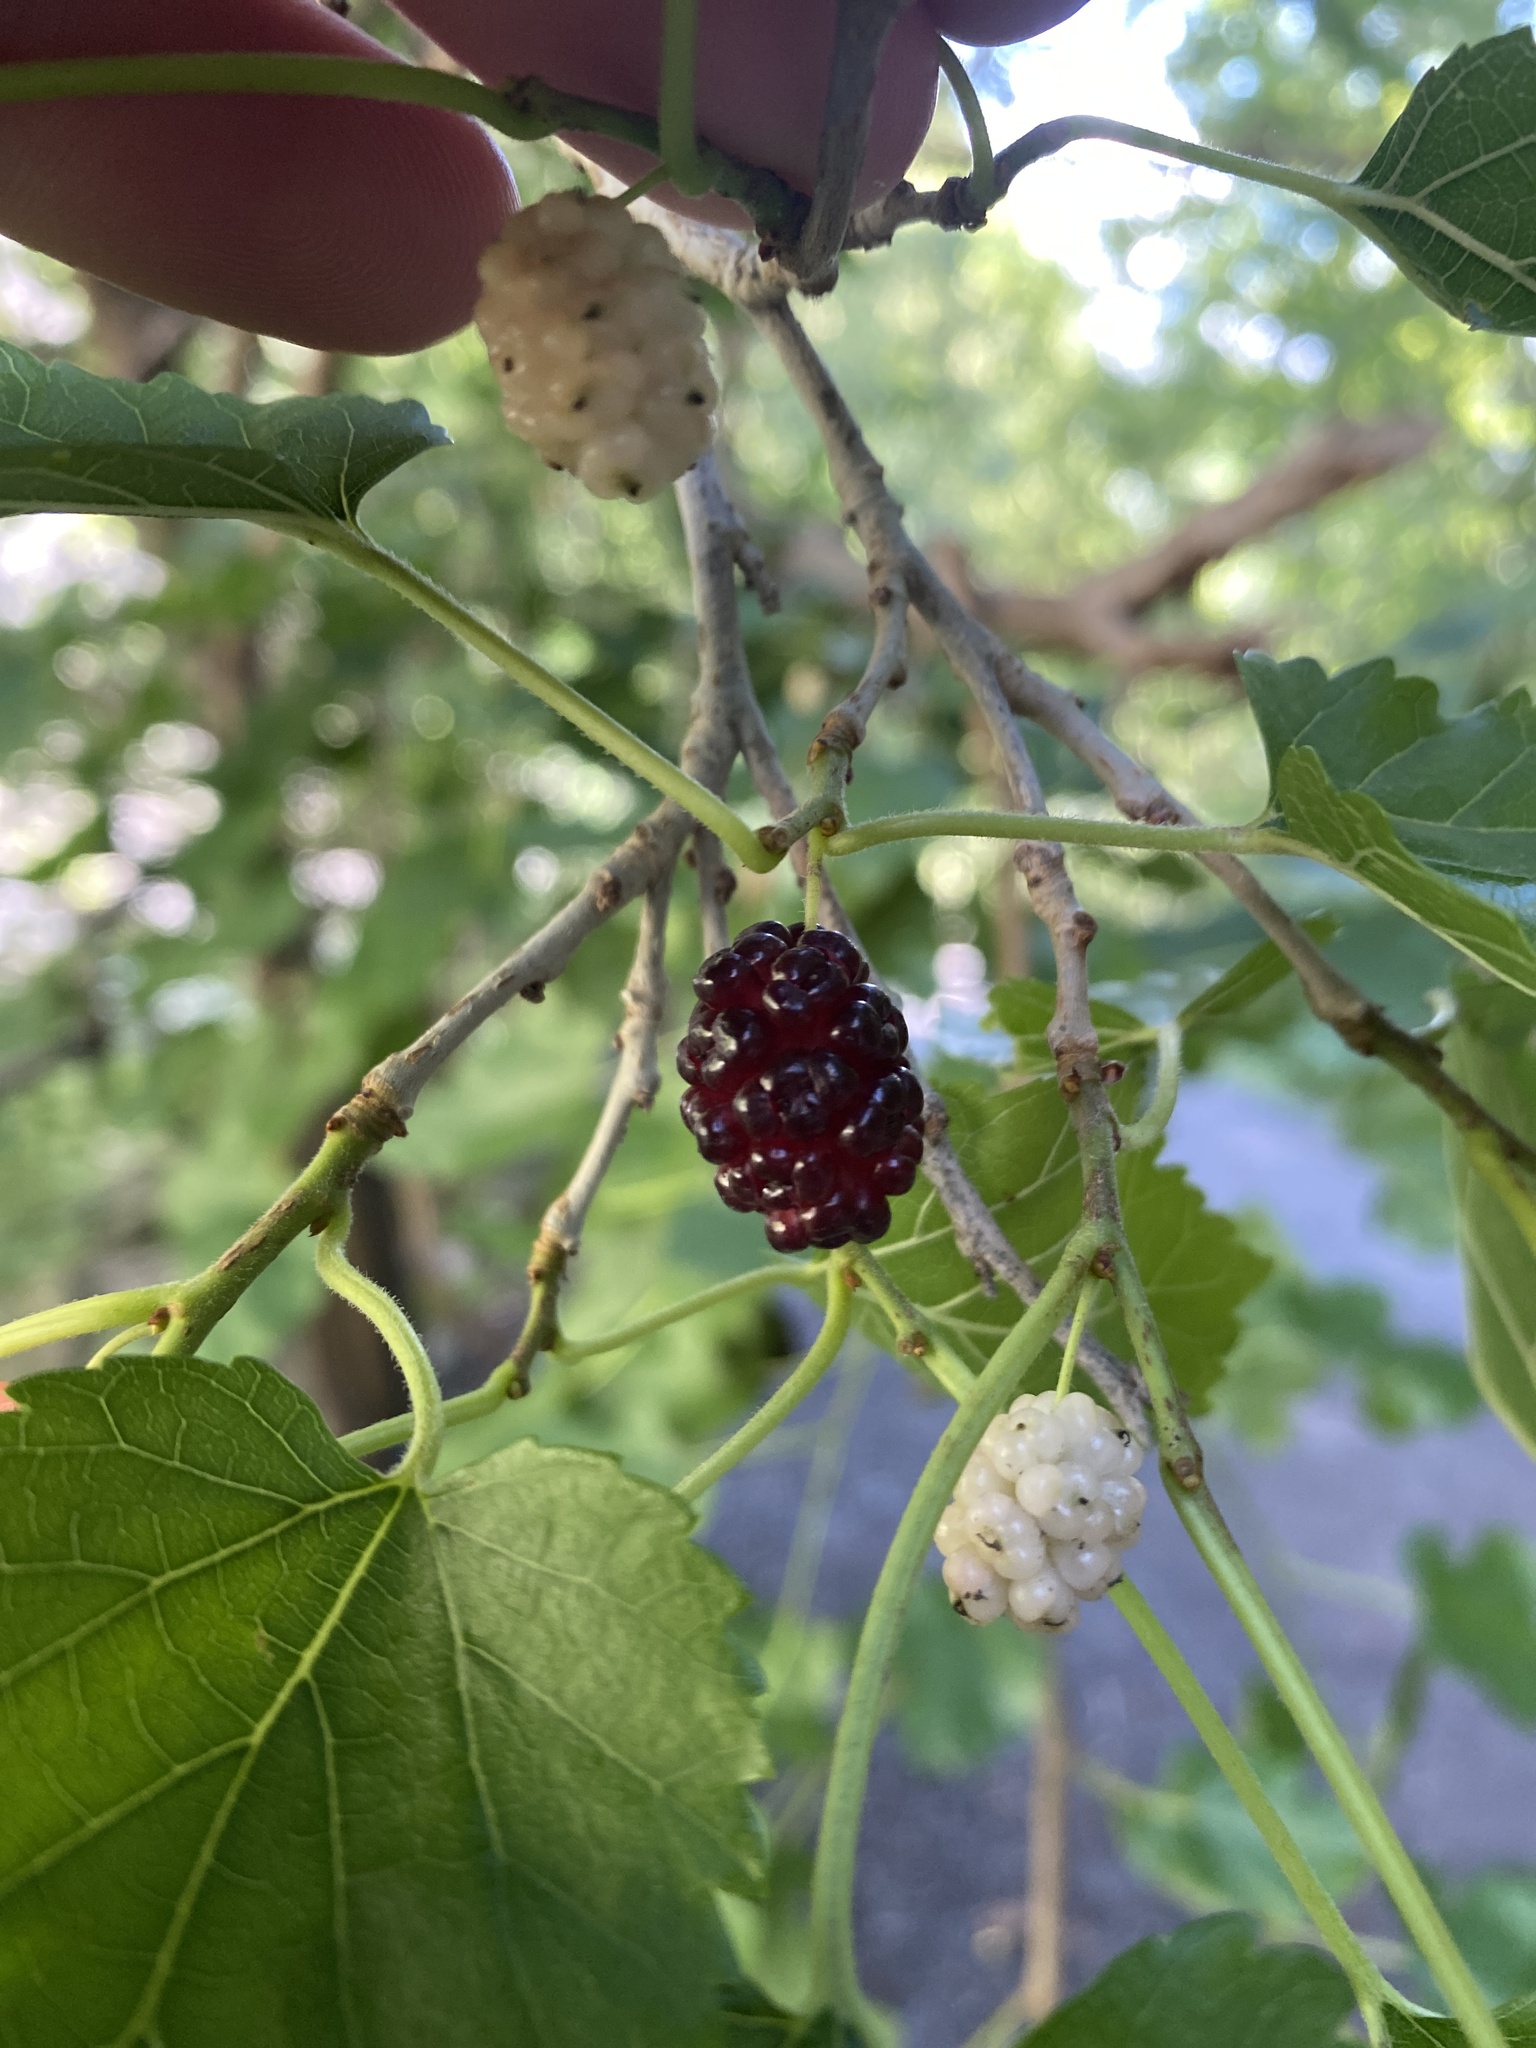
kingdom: Plantae
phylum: Tracheophyta
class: Magnoliopsida
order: Rosales
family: Moraceae
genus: Morus
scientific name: Morus alba
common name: White mulberry
